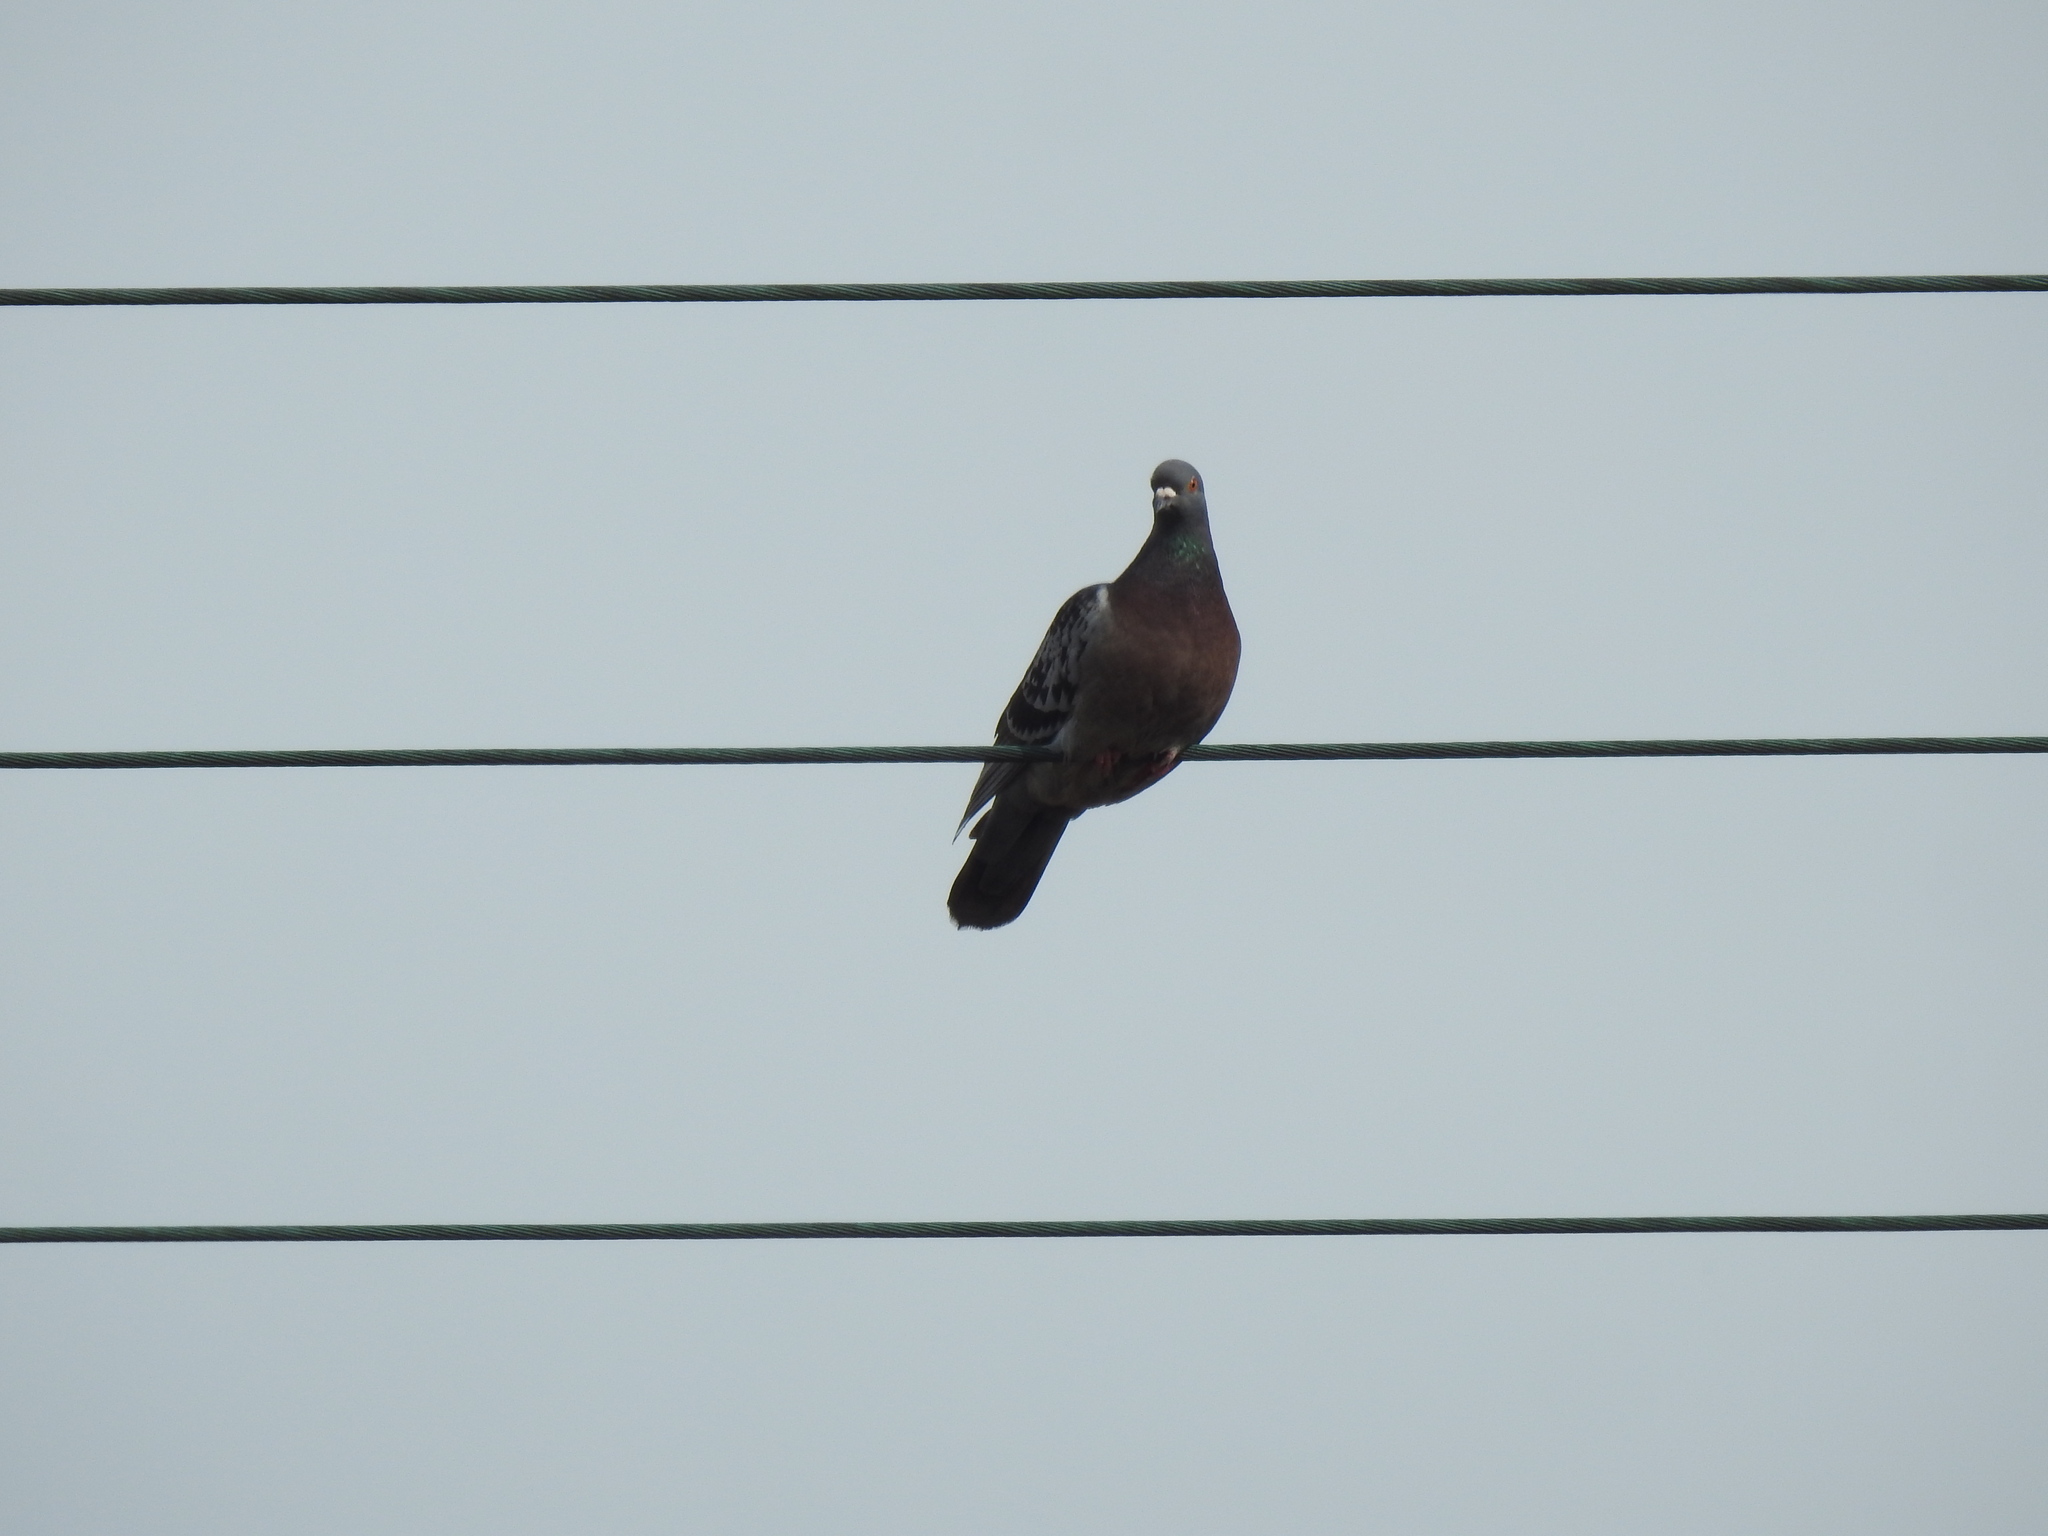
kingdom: Animalia
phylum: Chordata
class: Aves
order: Columbiformes
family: Columbidae
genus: Columba
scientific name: Columba livia
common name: Rock pigeon
